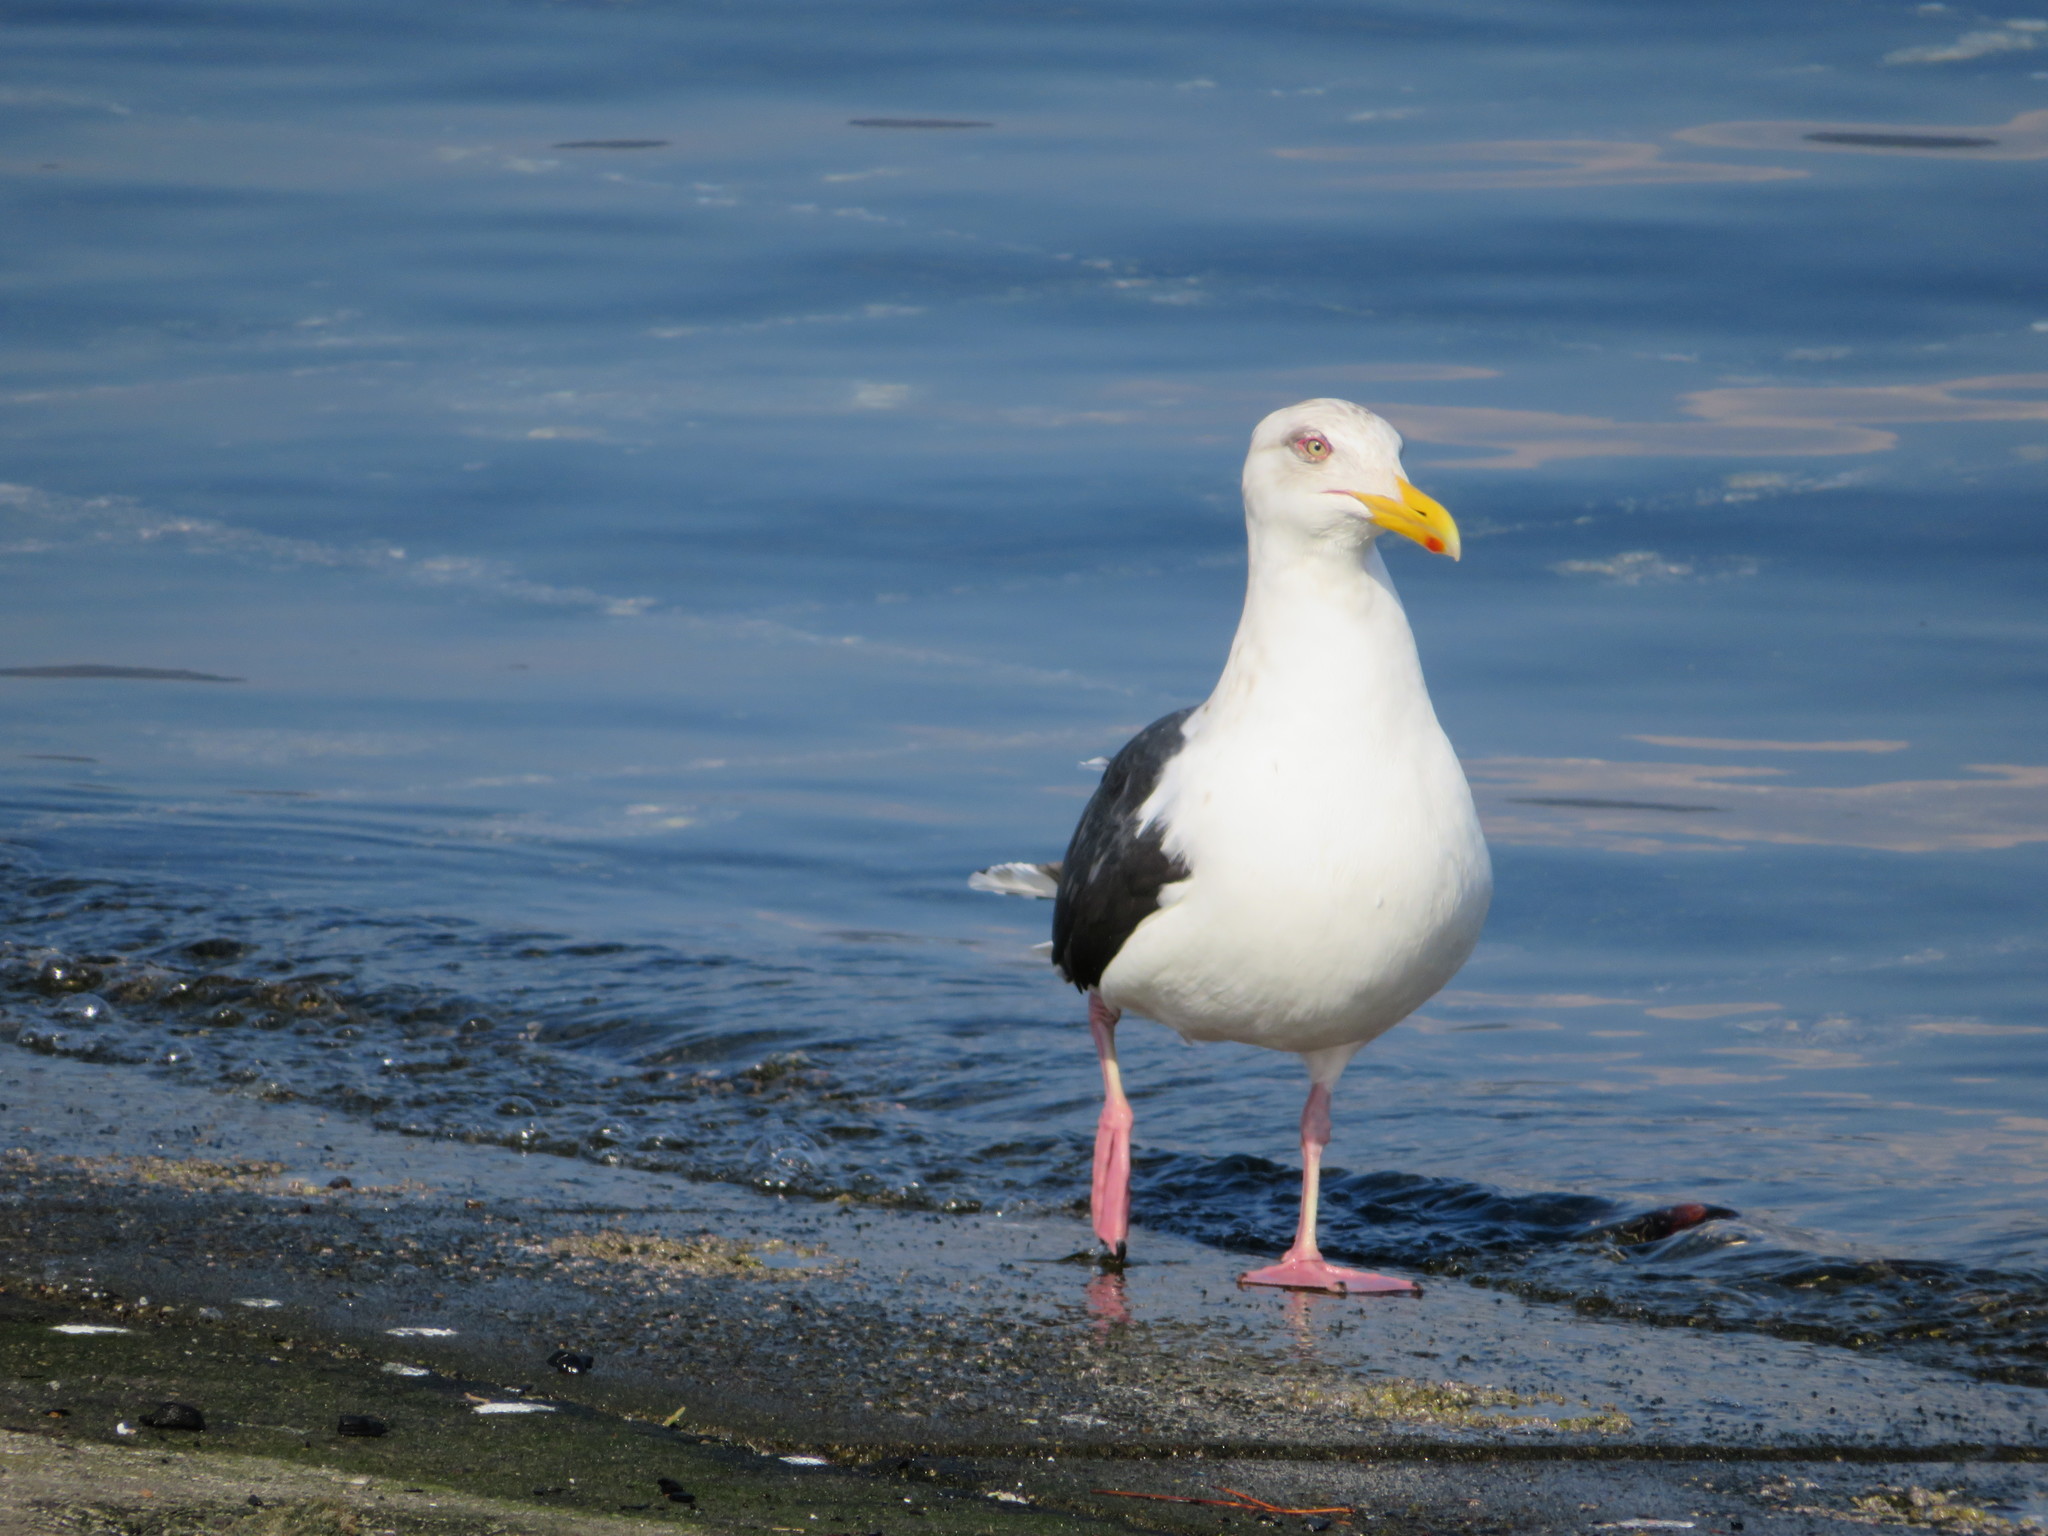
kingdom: Animalia
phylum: Chordata
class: Aves
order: Charadriiformes
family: Laridae
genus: Larus
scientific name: Larus schistisagus
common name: Slaty-backed gull
